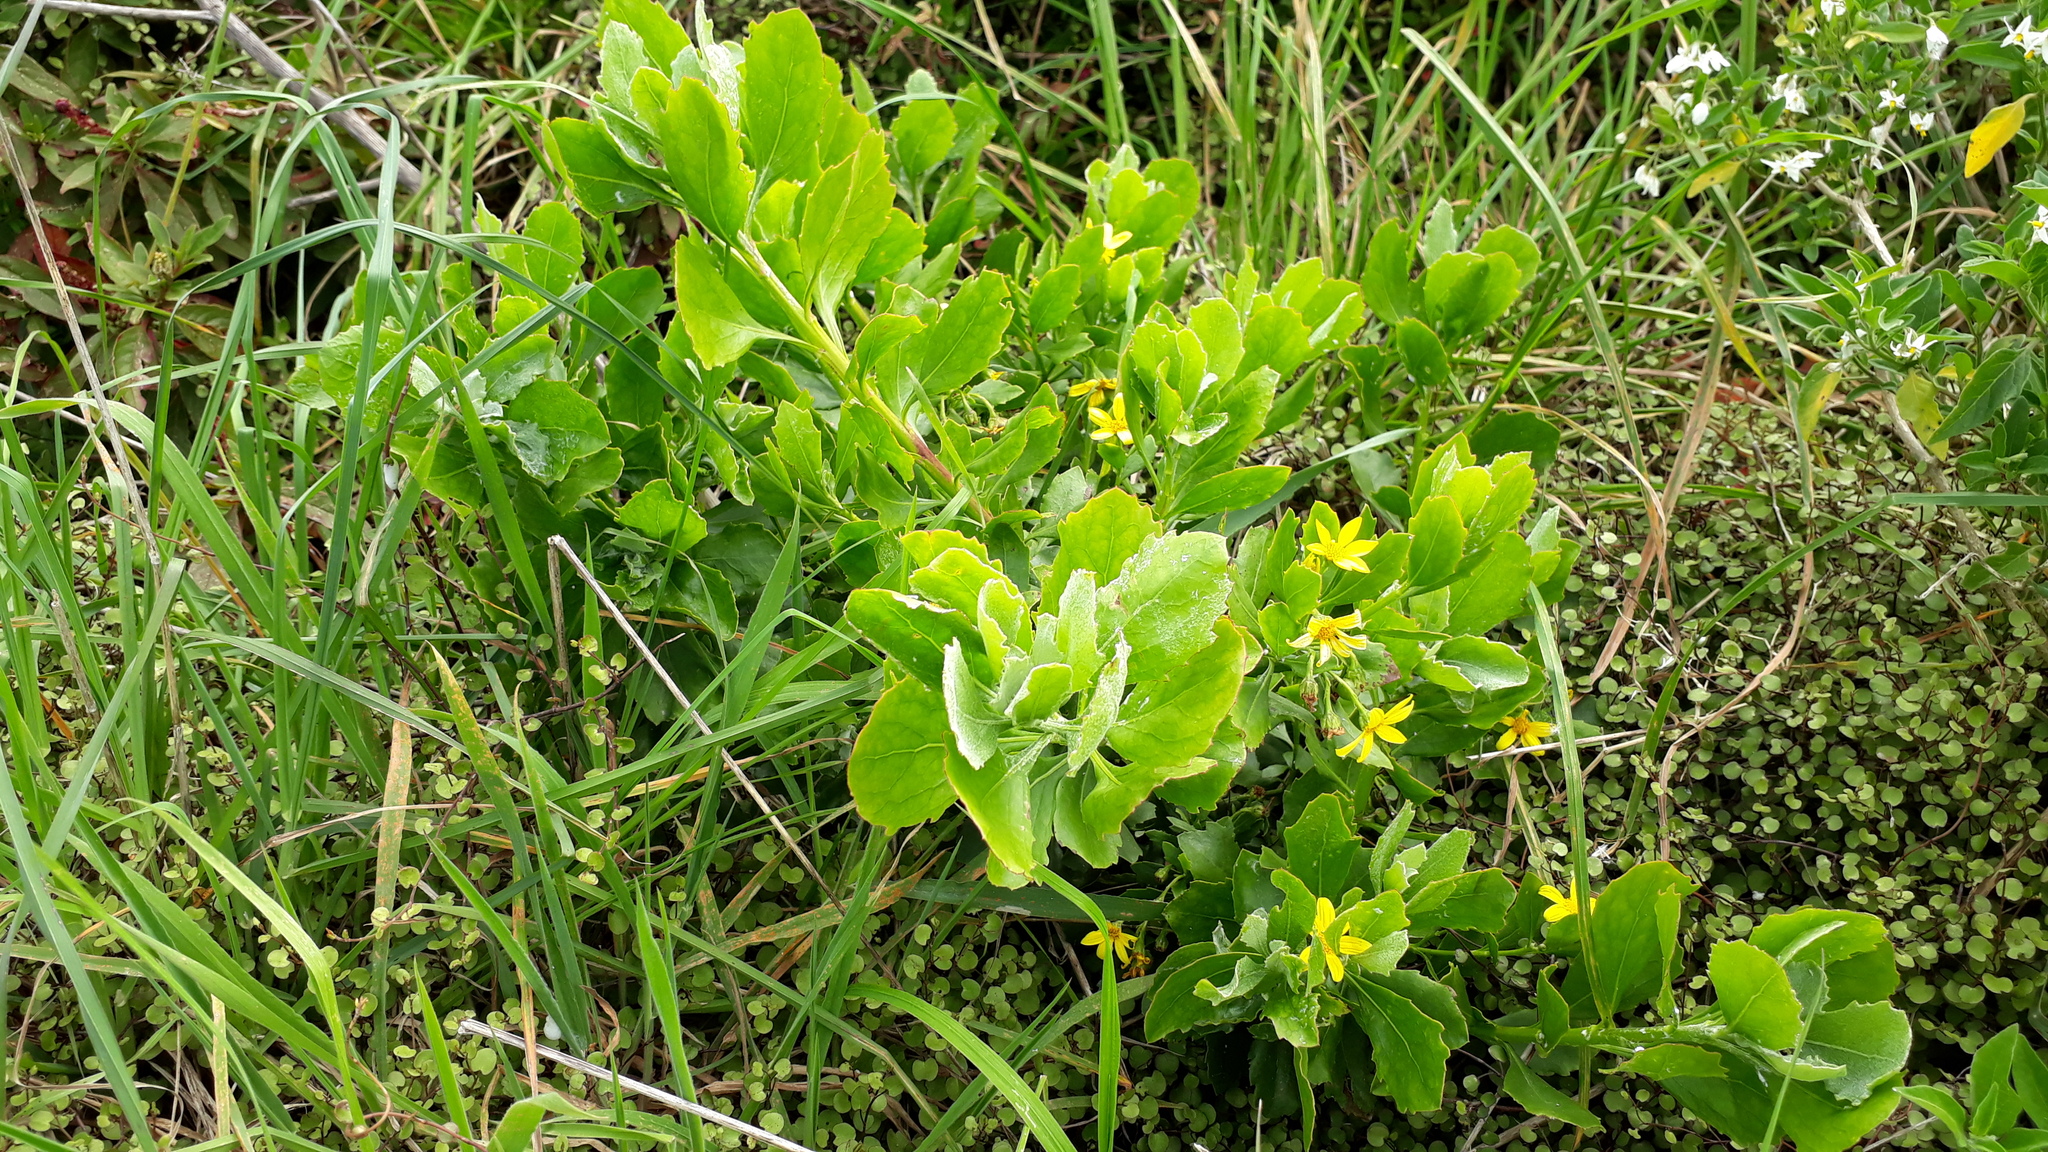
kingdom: Plantae
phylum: Tracheophyta
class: Magnoliopsida
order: Asterales
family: Asteraceae
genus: Osteospermum
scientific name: Osteospermum moniliferum
